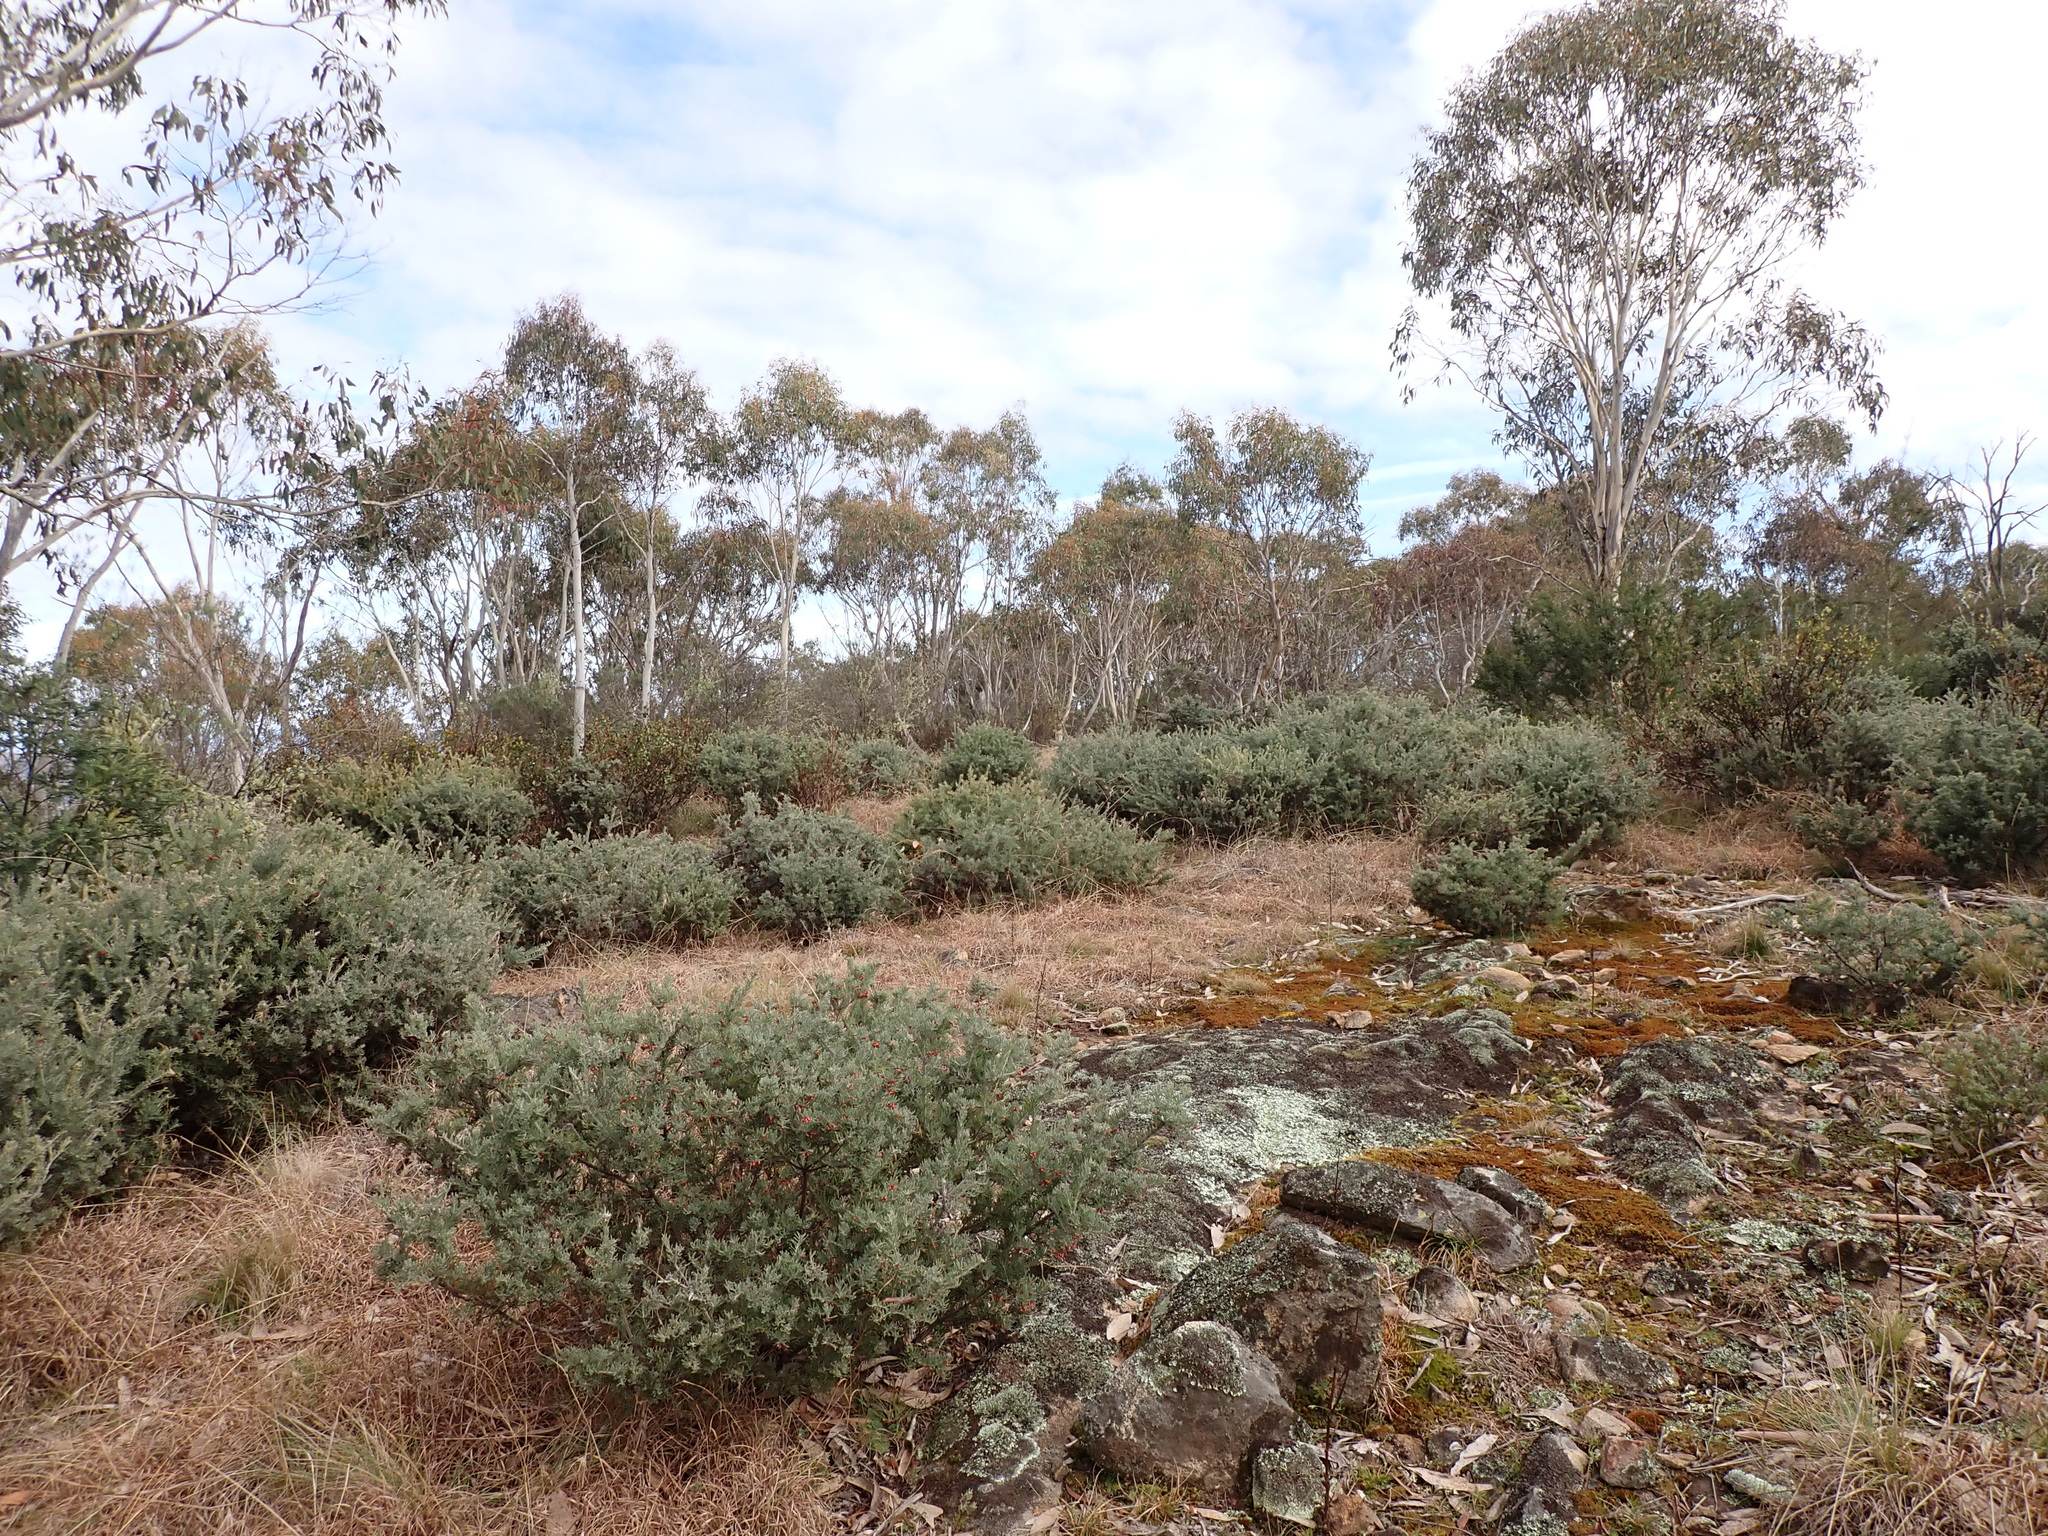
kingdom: Plantae
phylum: Tracheophyta
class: Magnoliopsida
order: Proteales
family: Proteaceae
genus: Grevillea
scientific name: Grevillea lanigera
